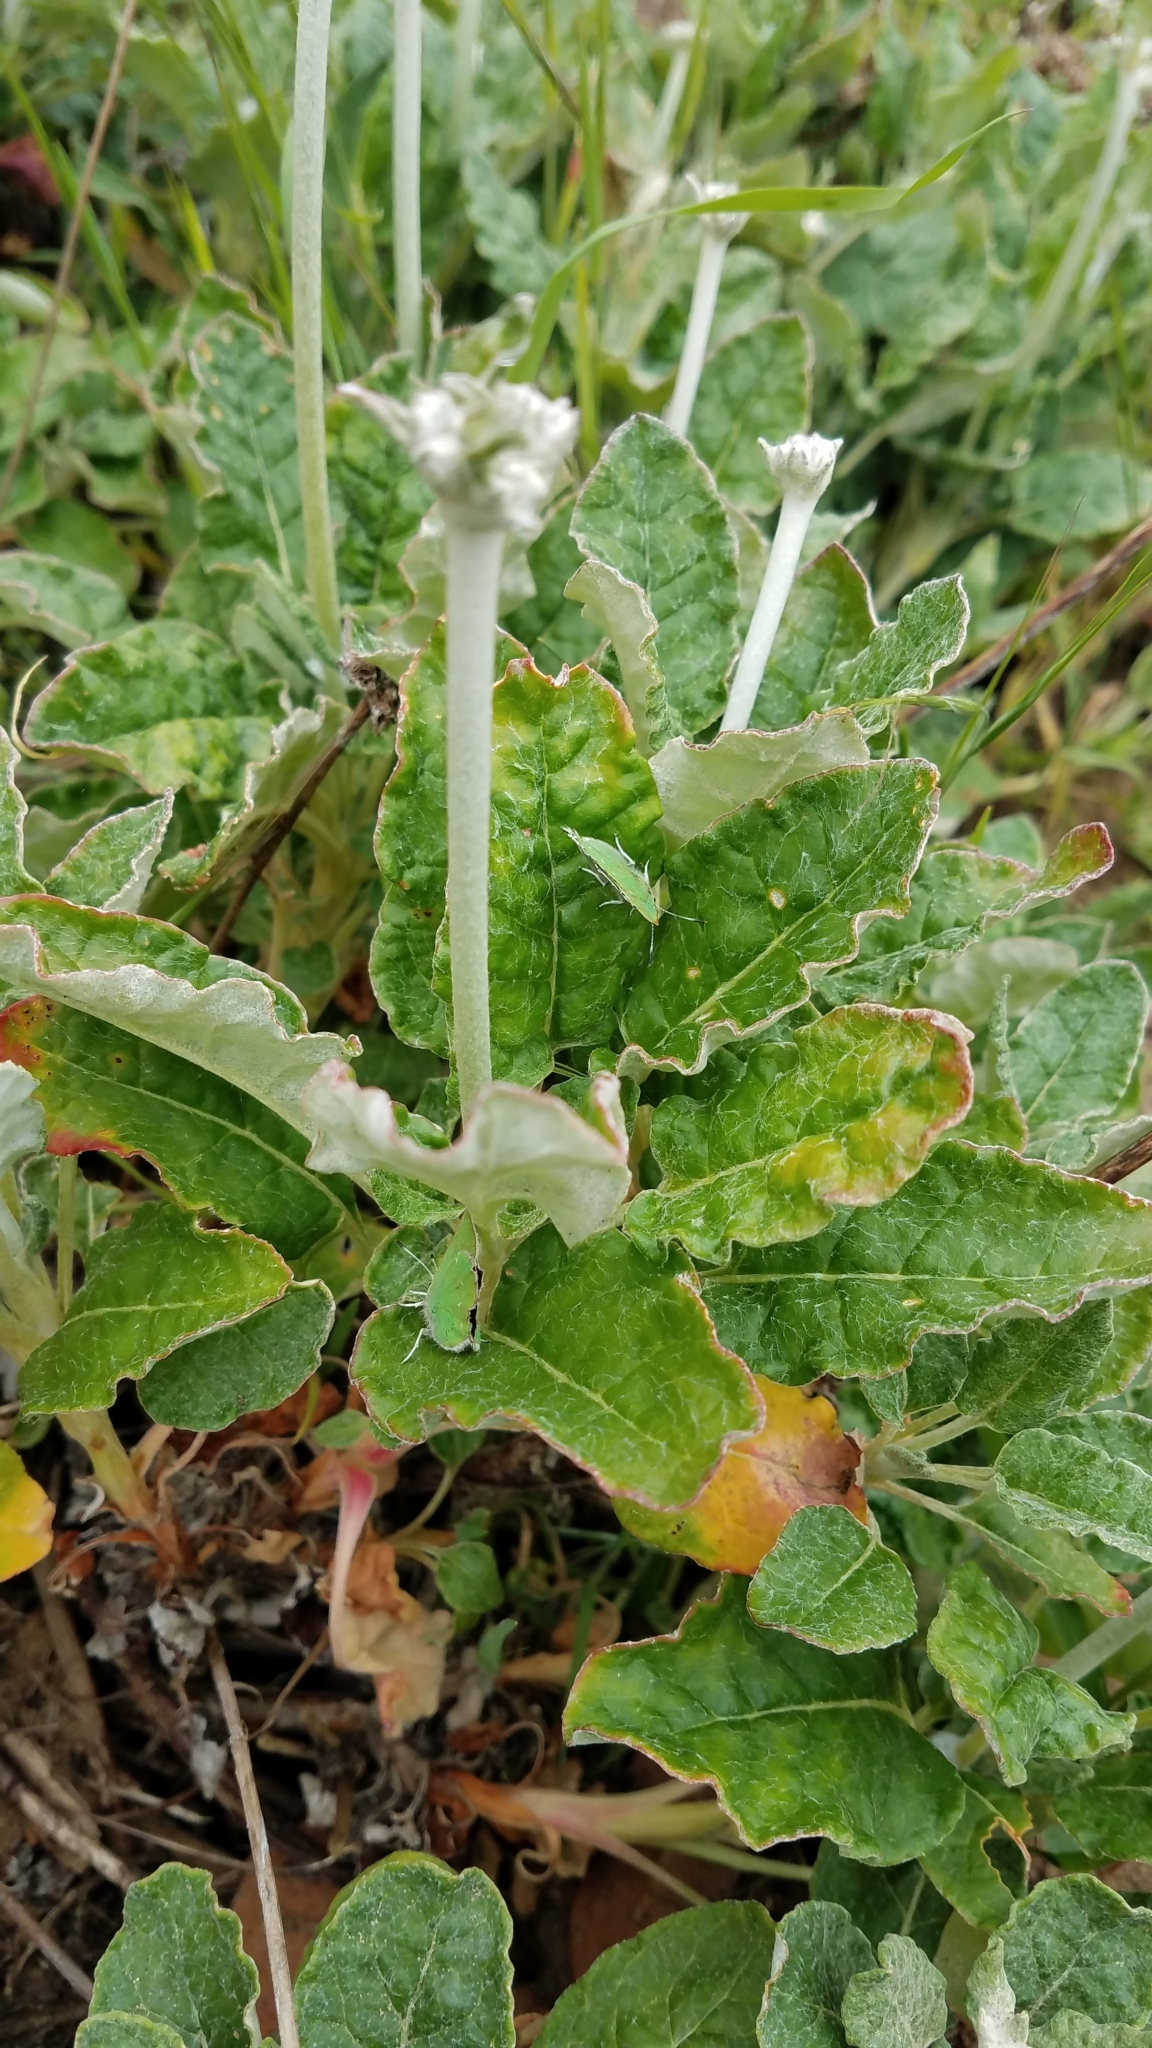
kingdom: Animalia
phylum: Arthropoda
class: Insecta
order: Lepidoptera
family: Lycaenidae
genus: Callophrys
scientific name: Callophrys viridis
